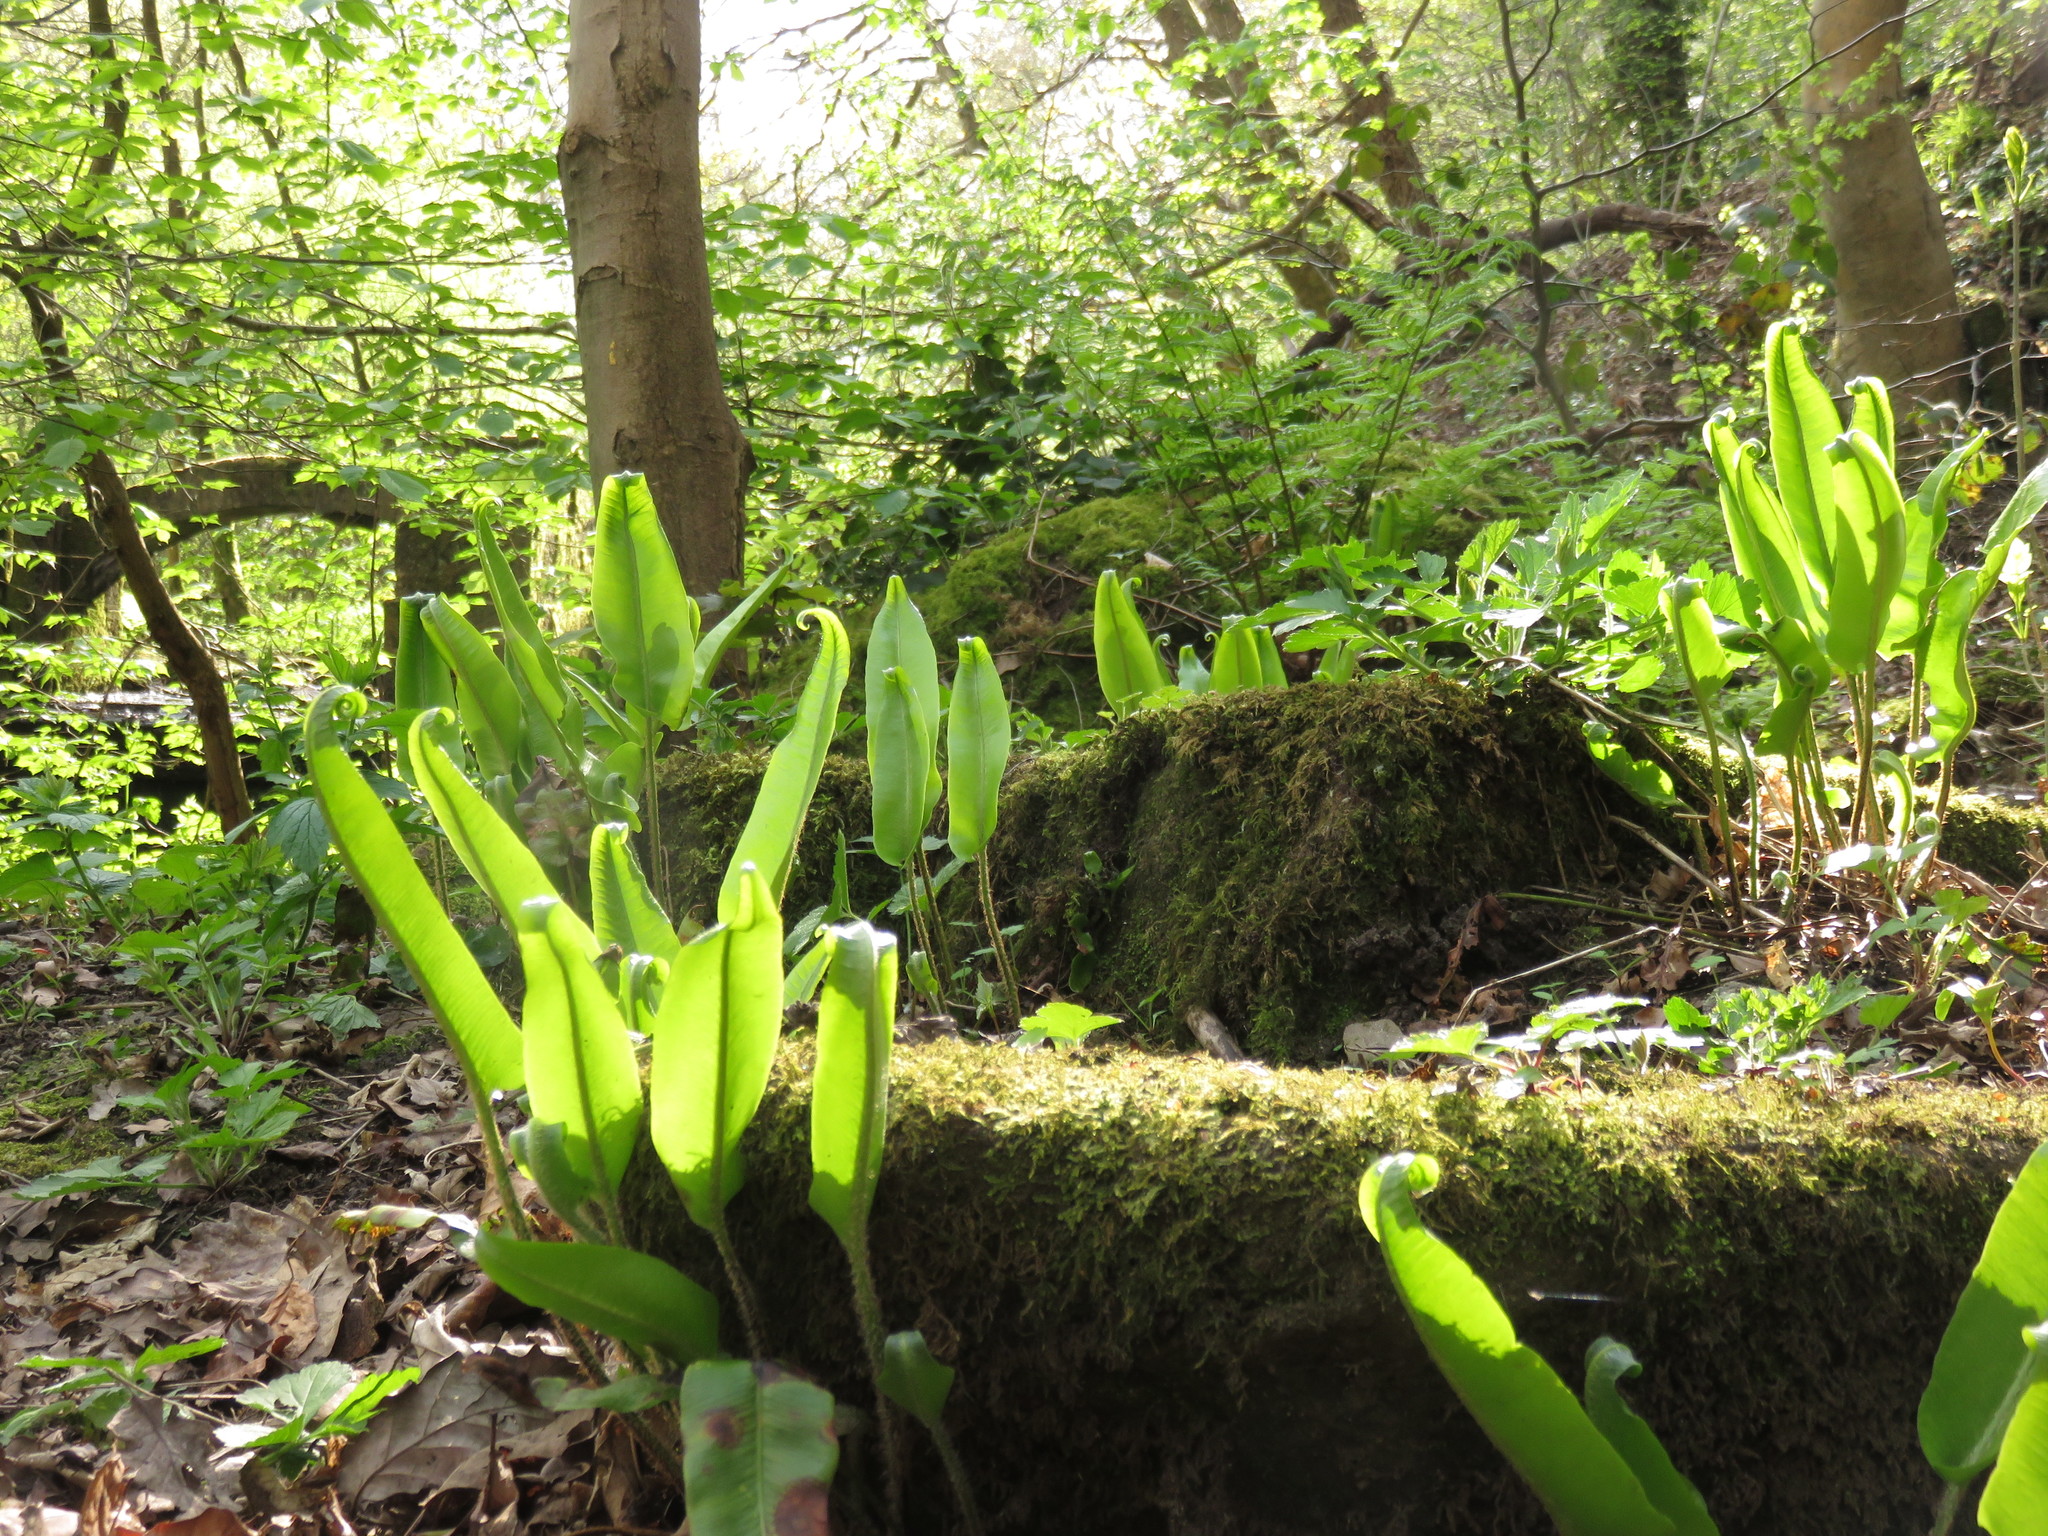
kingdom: Plantae
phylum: Tracheophyta
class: Polypodiopsida
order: Polypodiales
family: Aspleniaceae
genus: Asplenium
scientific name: Asplenium scolopendrium
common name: Hart's-tongue fern
